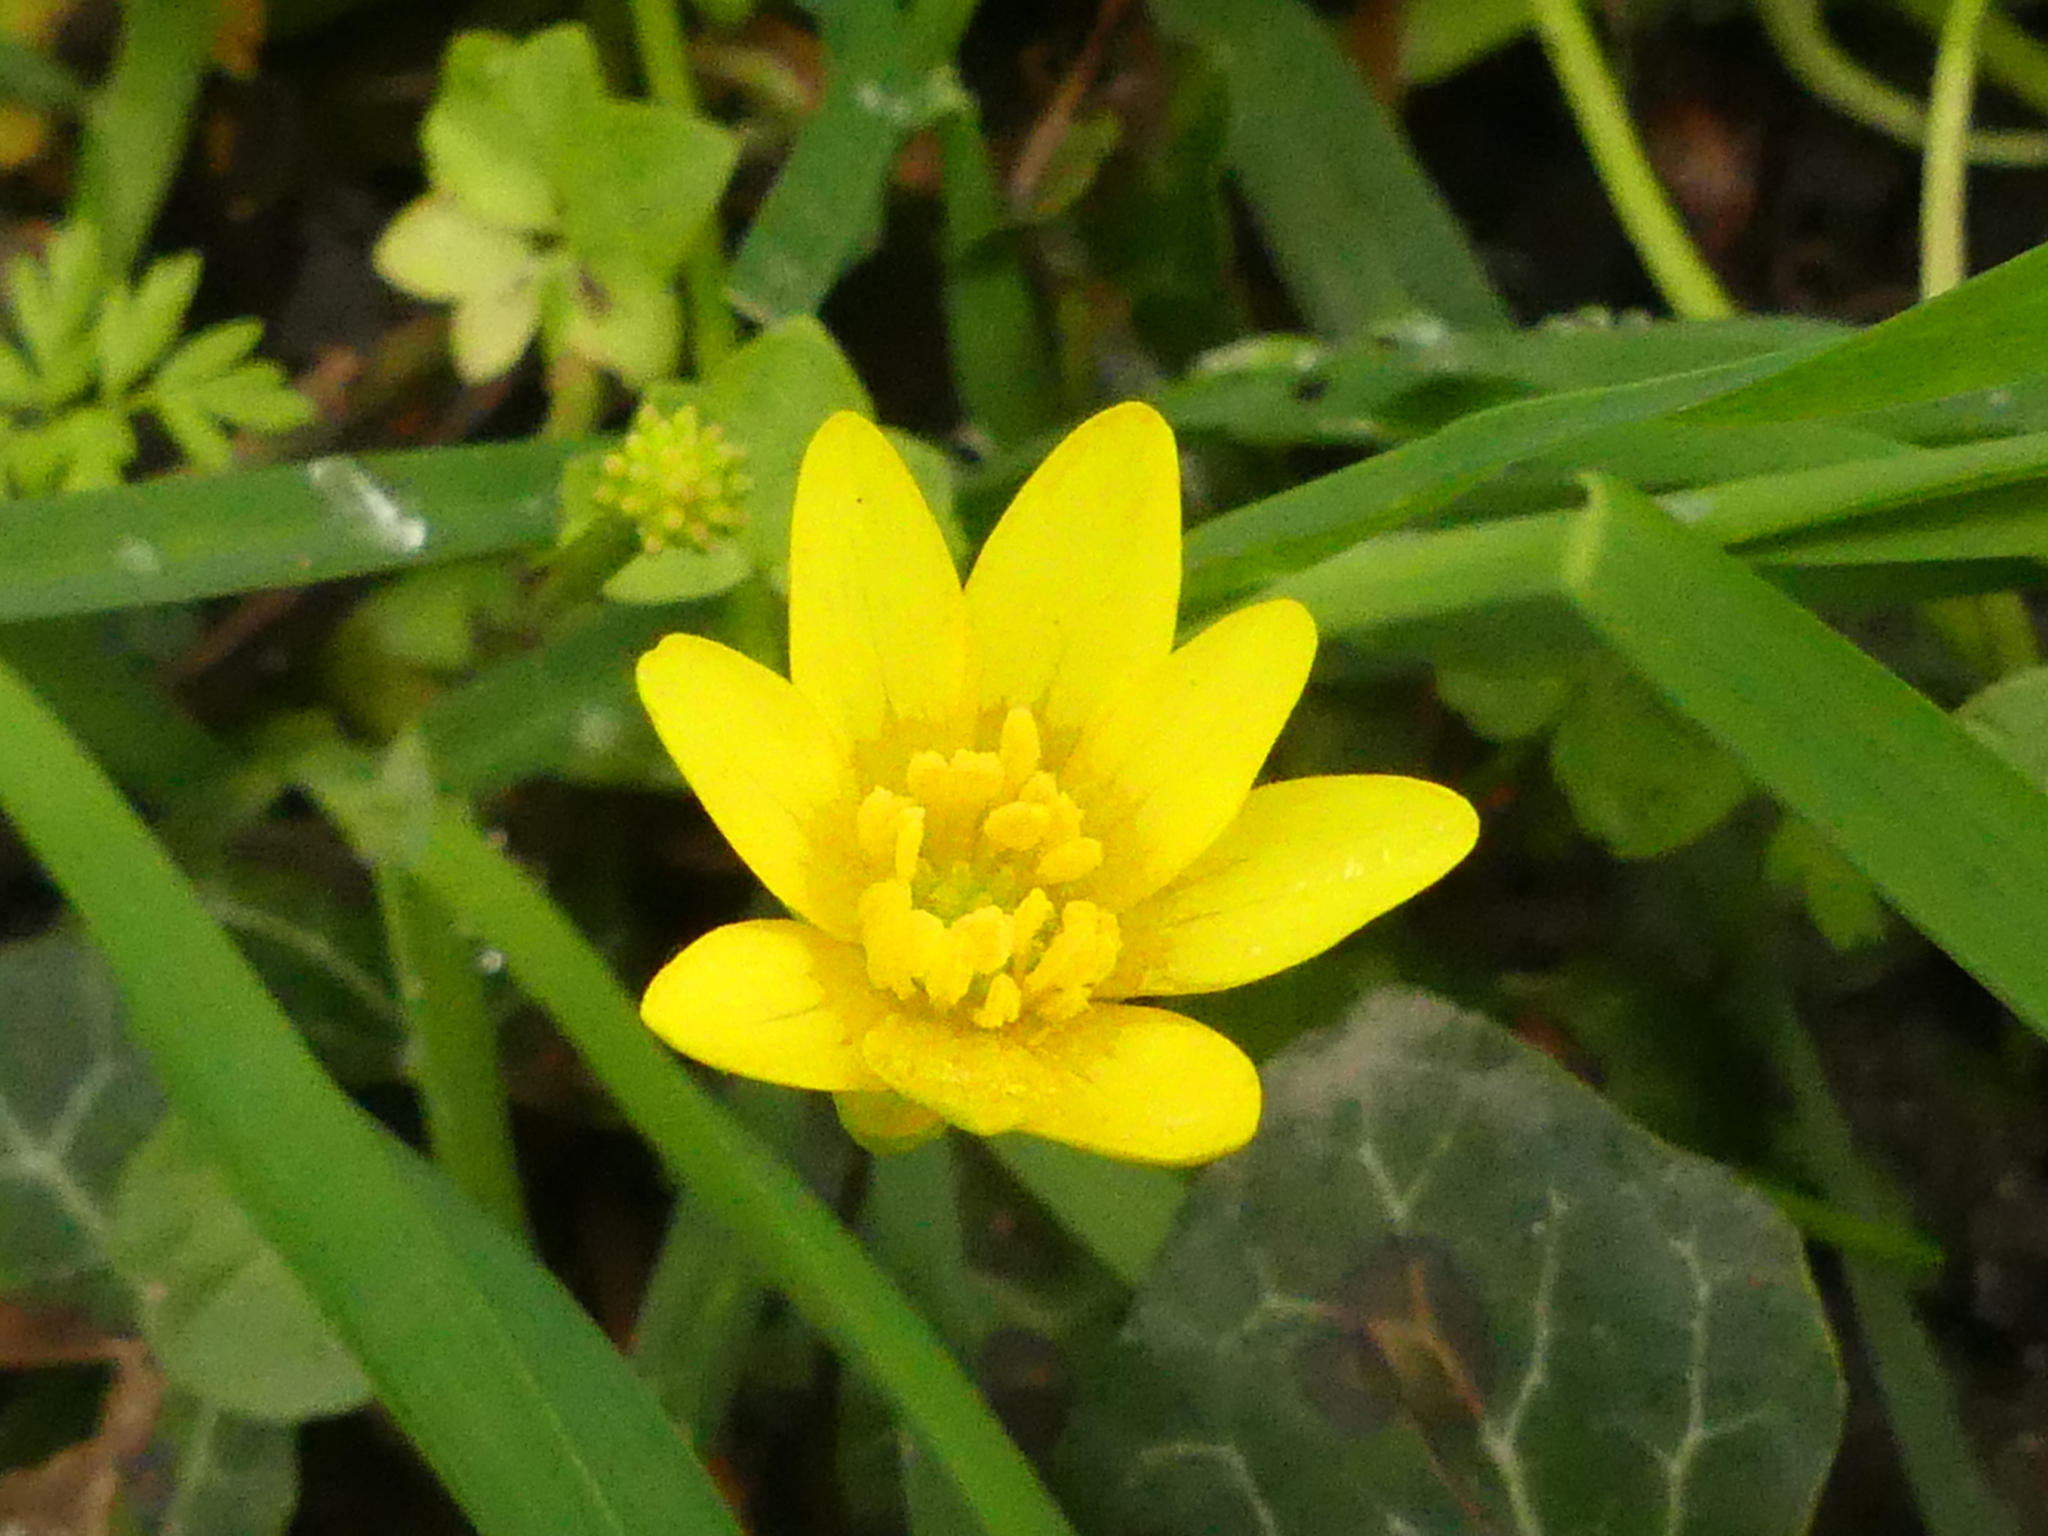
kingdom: Plantae
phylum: Tracheophyta
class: Magnoliopsida
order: Ranunculales
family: Ranunculaceae
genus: Ficaria
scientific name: Ficaria verna
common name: Lesser celandine
